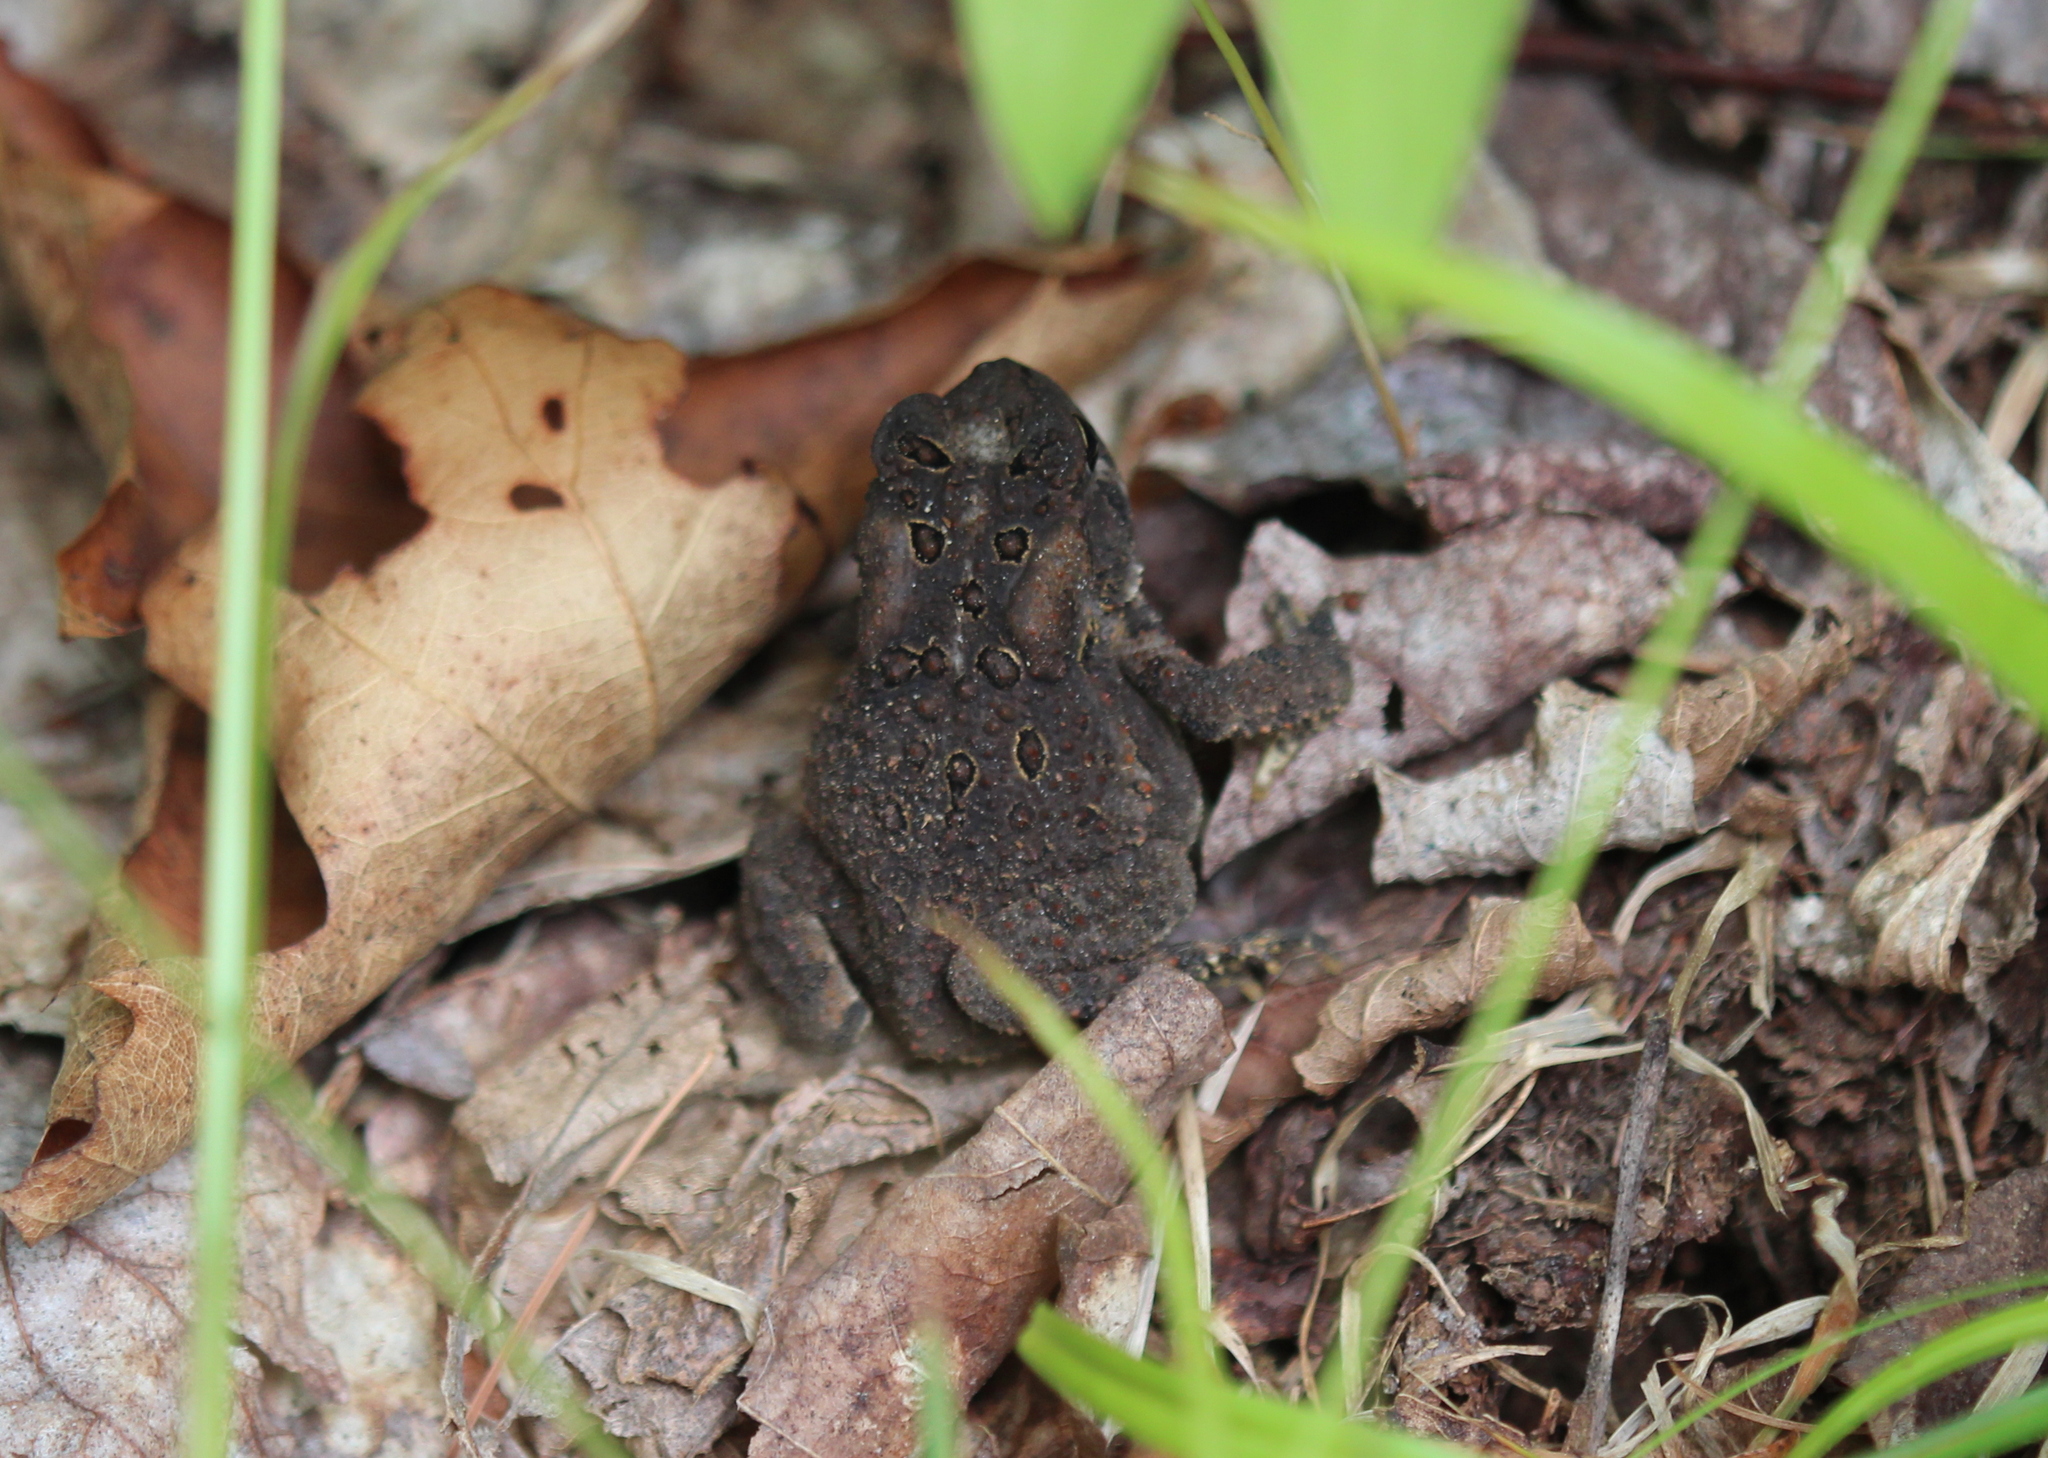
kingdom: Animalia
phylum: Chordata
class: Amphibia
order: Anura
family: Bufonidae
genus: Anaxyrus
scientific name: Anaxyrus americanus
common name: American toad
